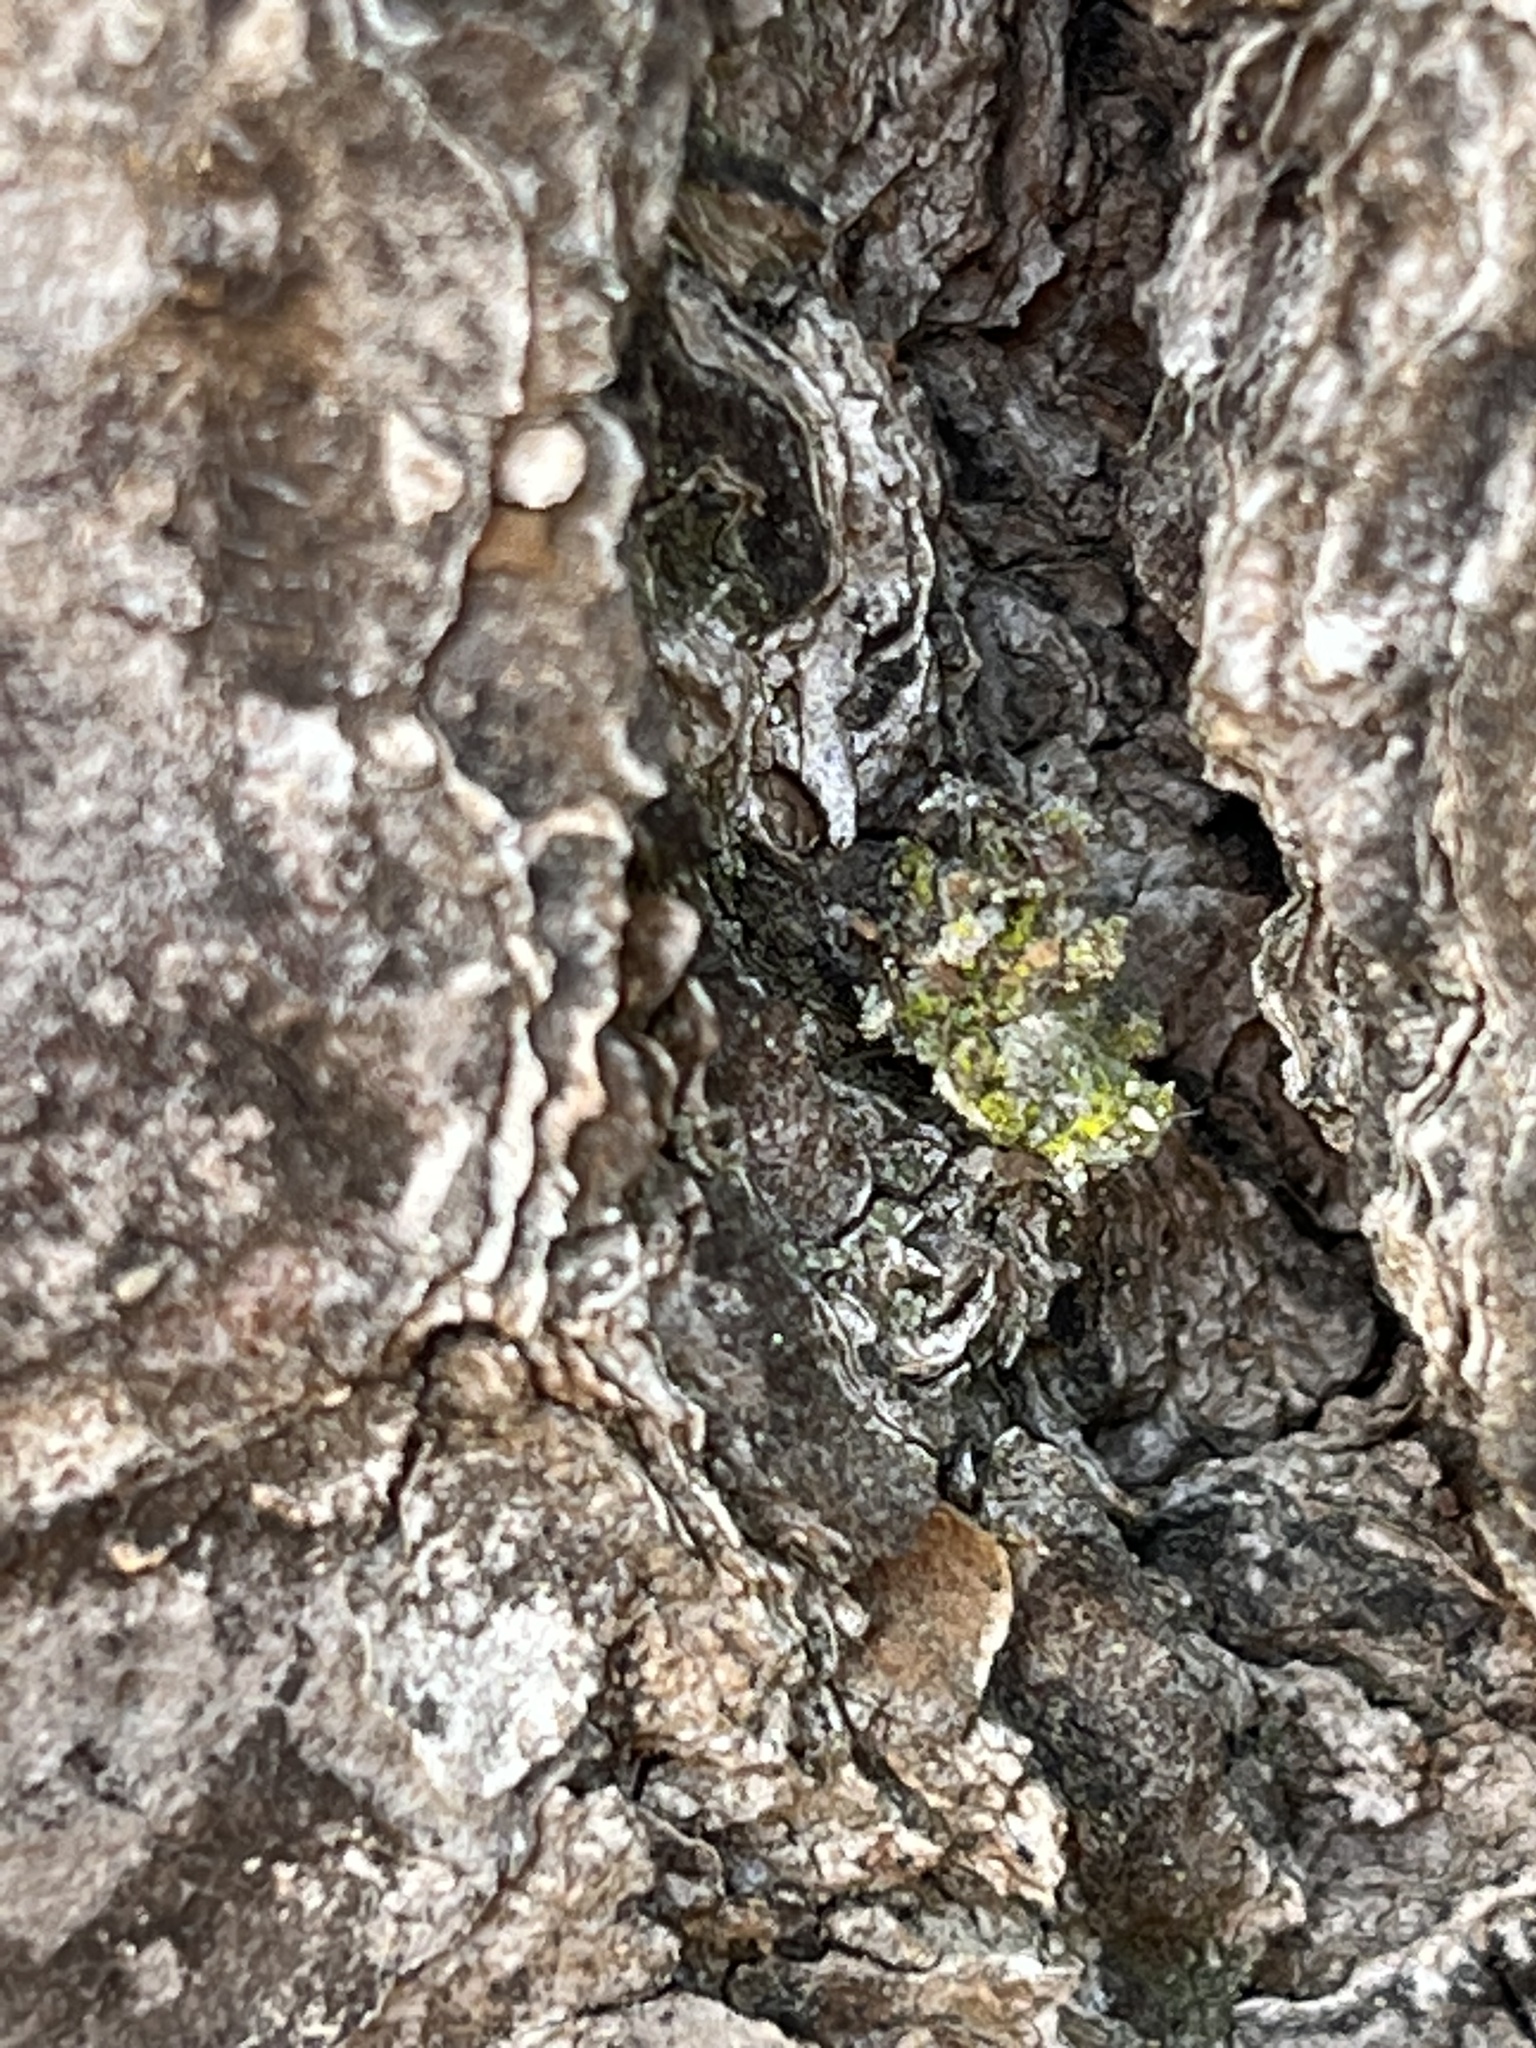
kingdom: Animalia
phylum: Arthropoda
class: Insecta
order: Neuroptera
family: Chrysopidae
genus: Leucochrysa
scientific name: Leucochrysa pavida
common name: Lichen-carrying green lacewing
